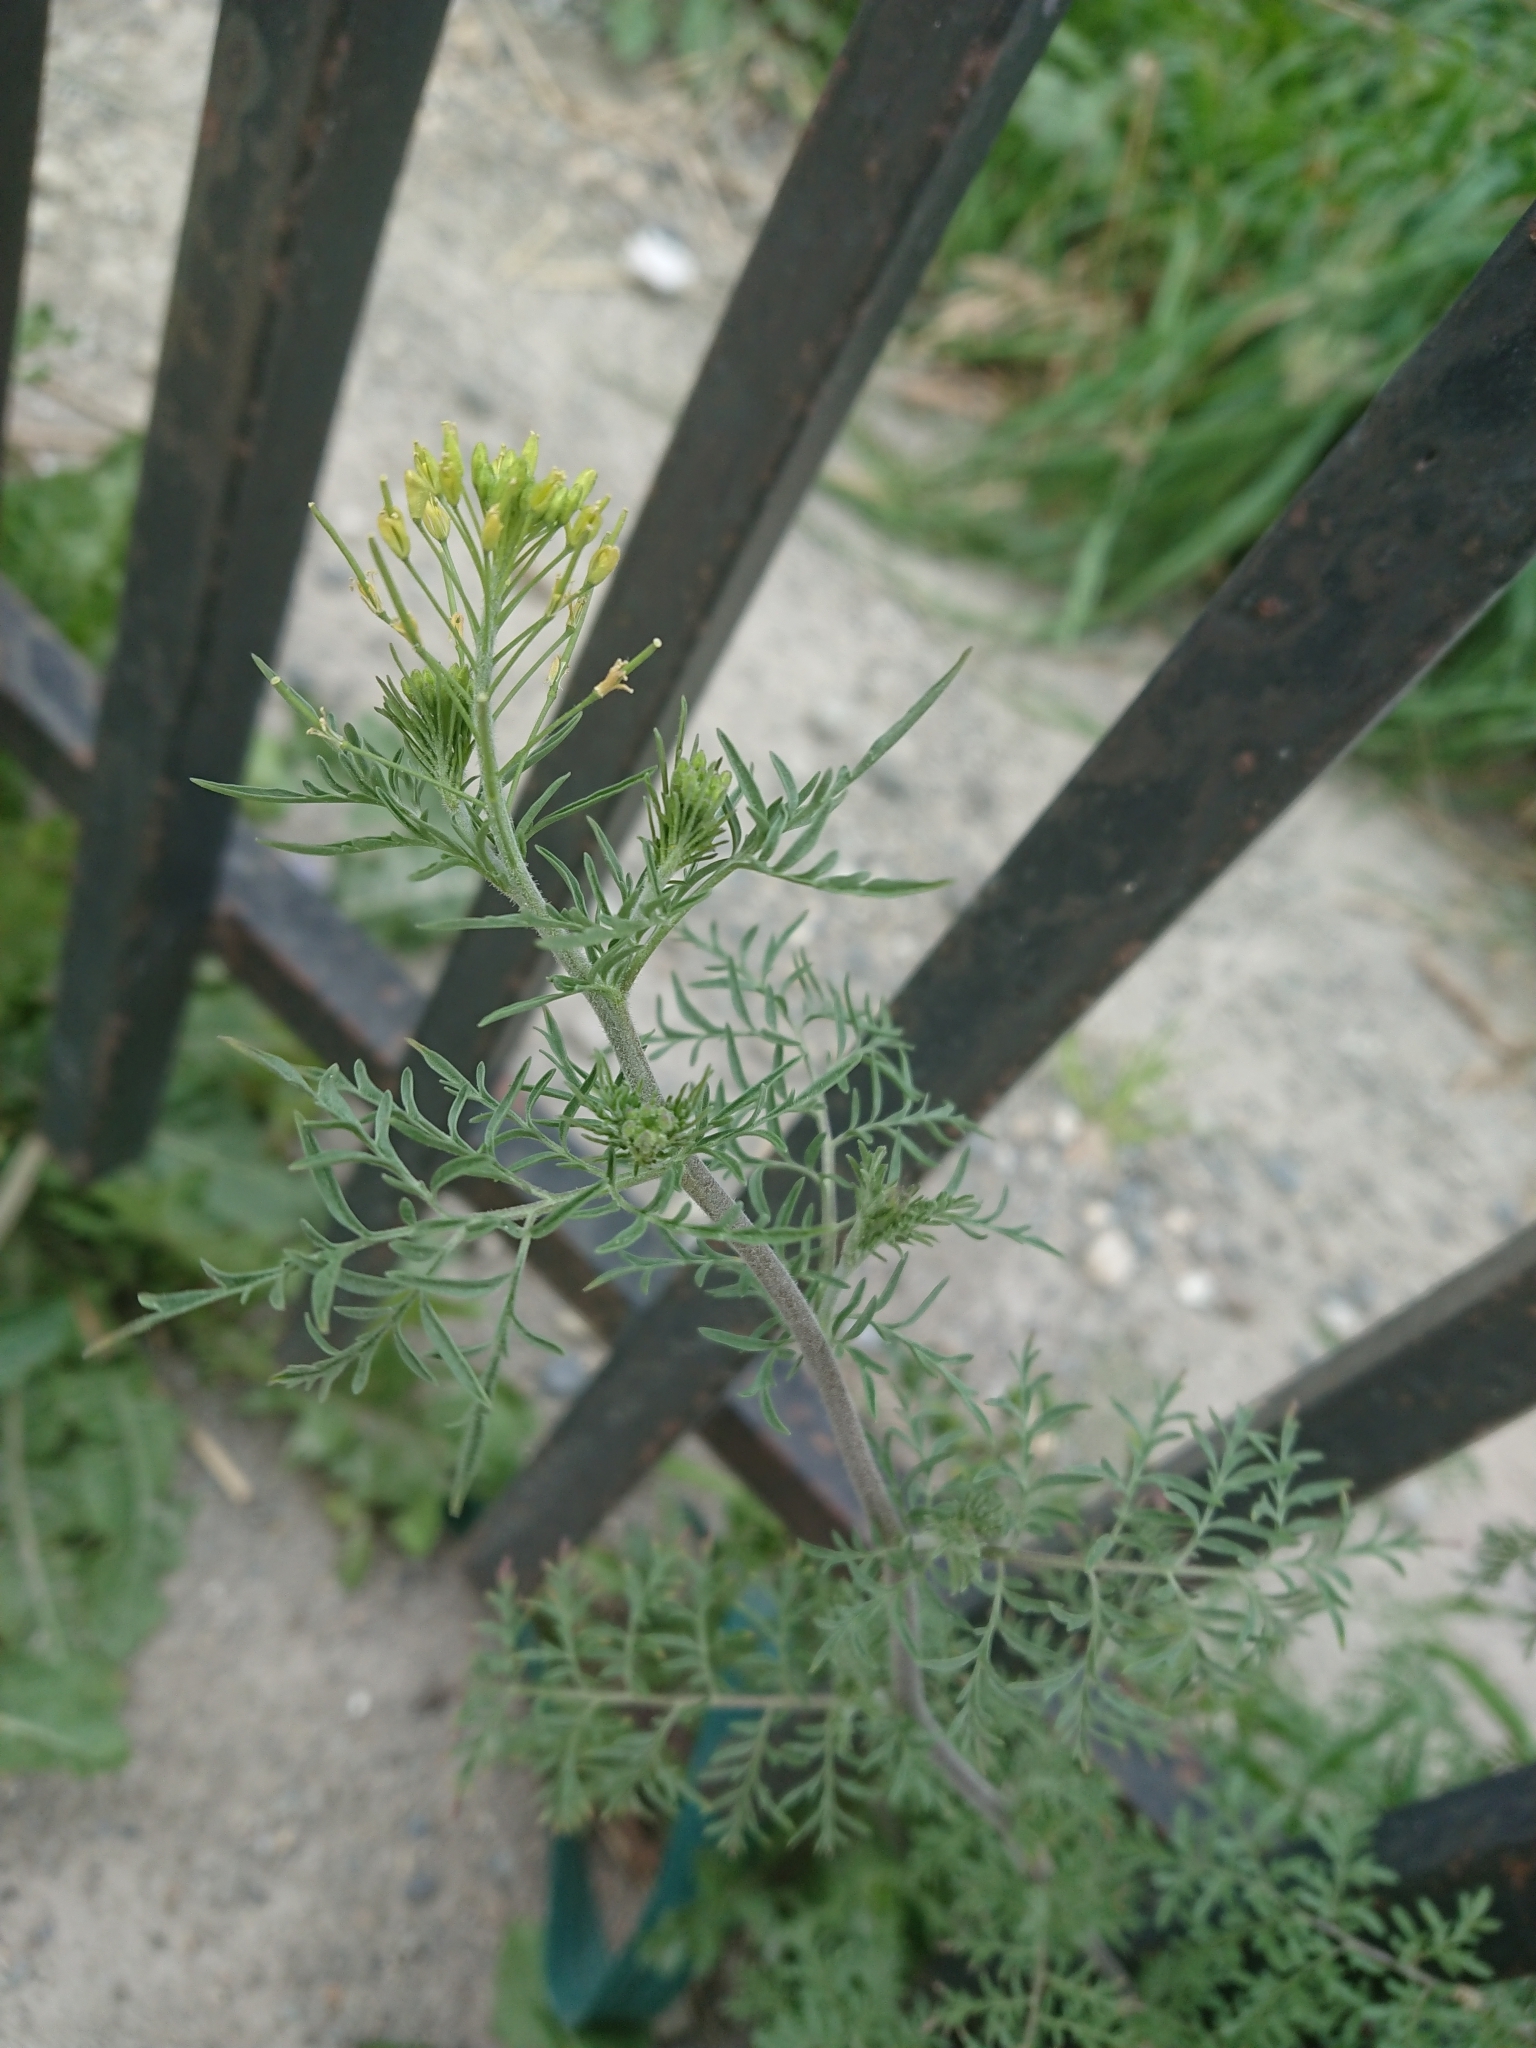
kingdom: Plantae
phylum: Tracheophyta
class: Magnoliopsida
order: Brassicales
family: Brassicaceae
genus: Descurainia
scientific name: Descurainia sophia
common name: Flixweed
